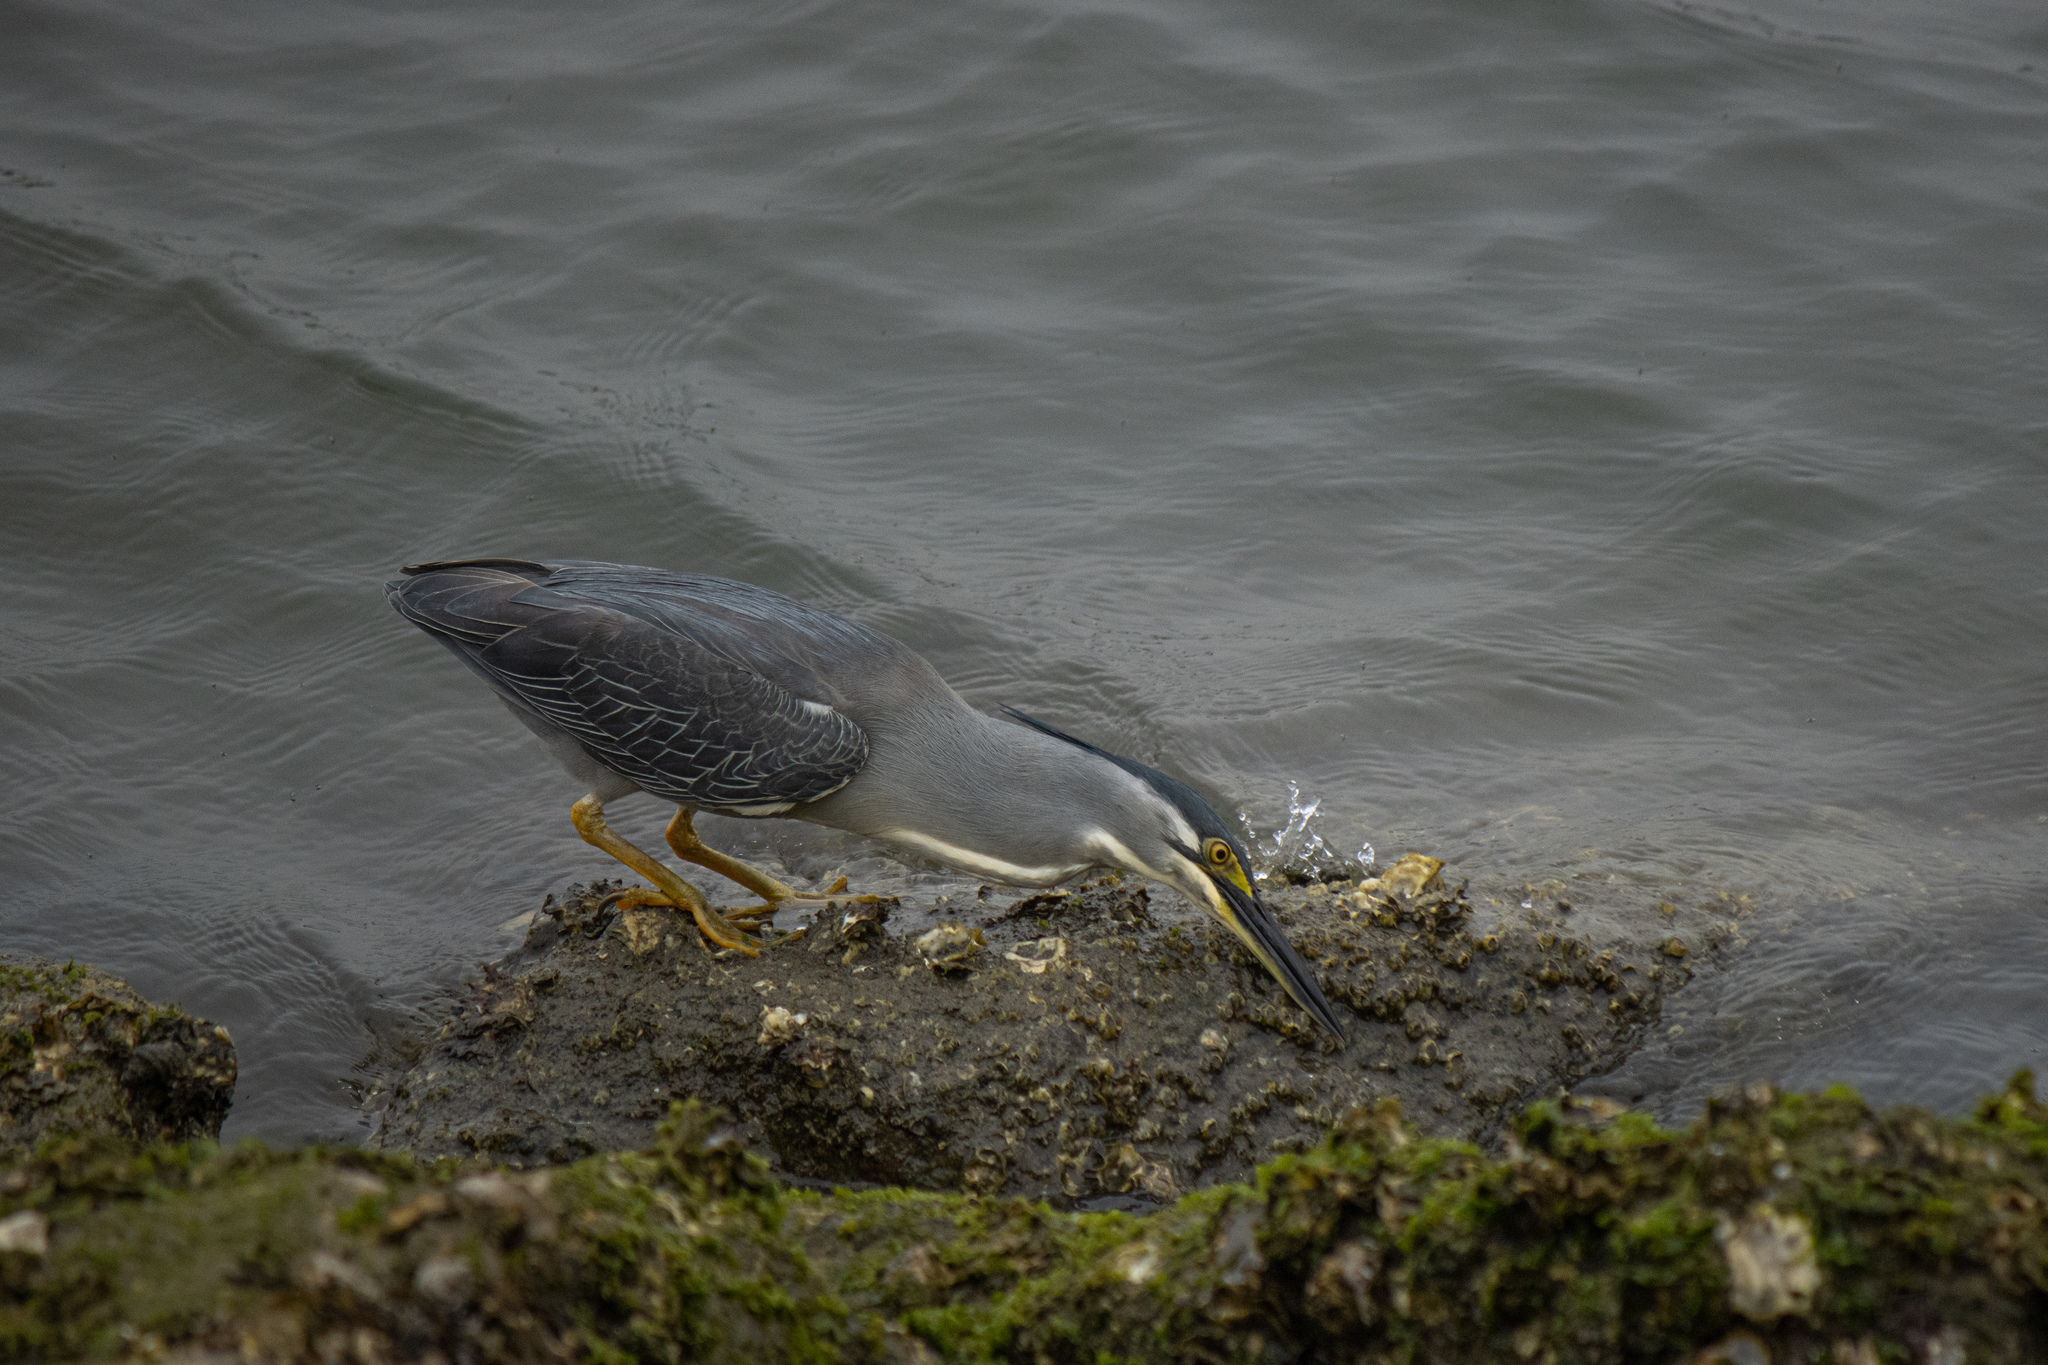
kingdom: Animalia
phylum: Chordata
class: Aves
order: Pelecaniformes
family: Ardeidae
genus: Butorides
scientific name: Butorides striata
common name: Striated heron
